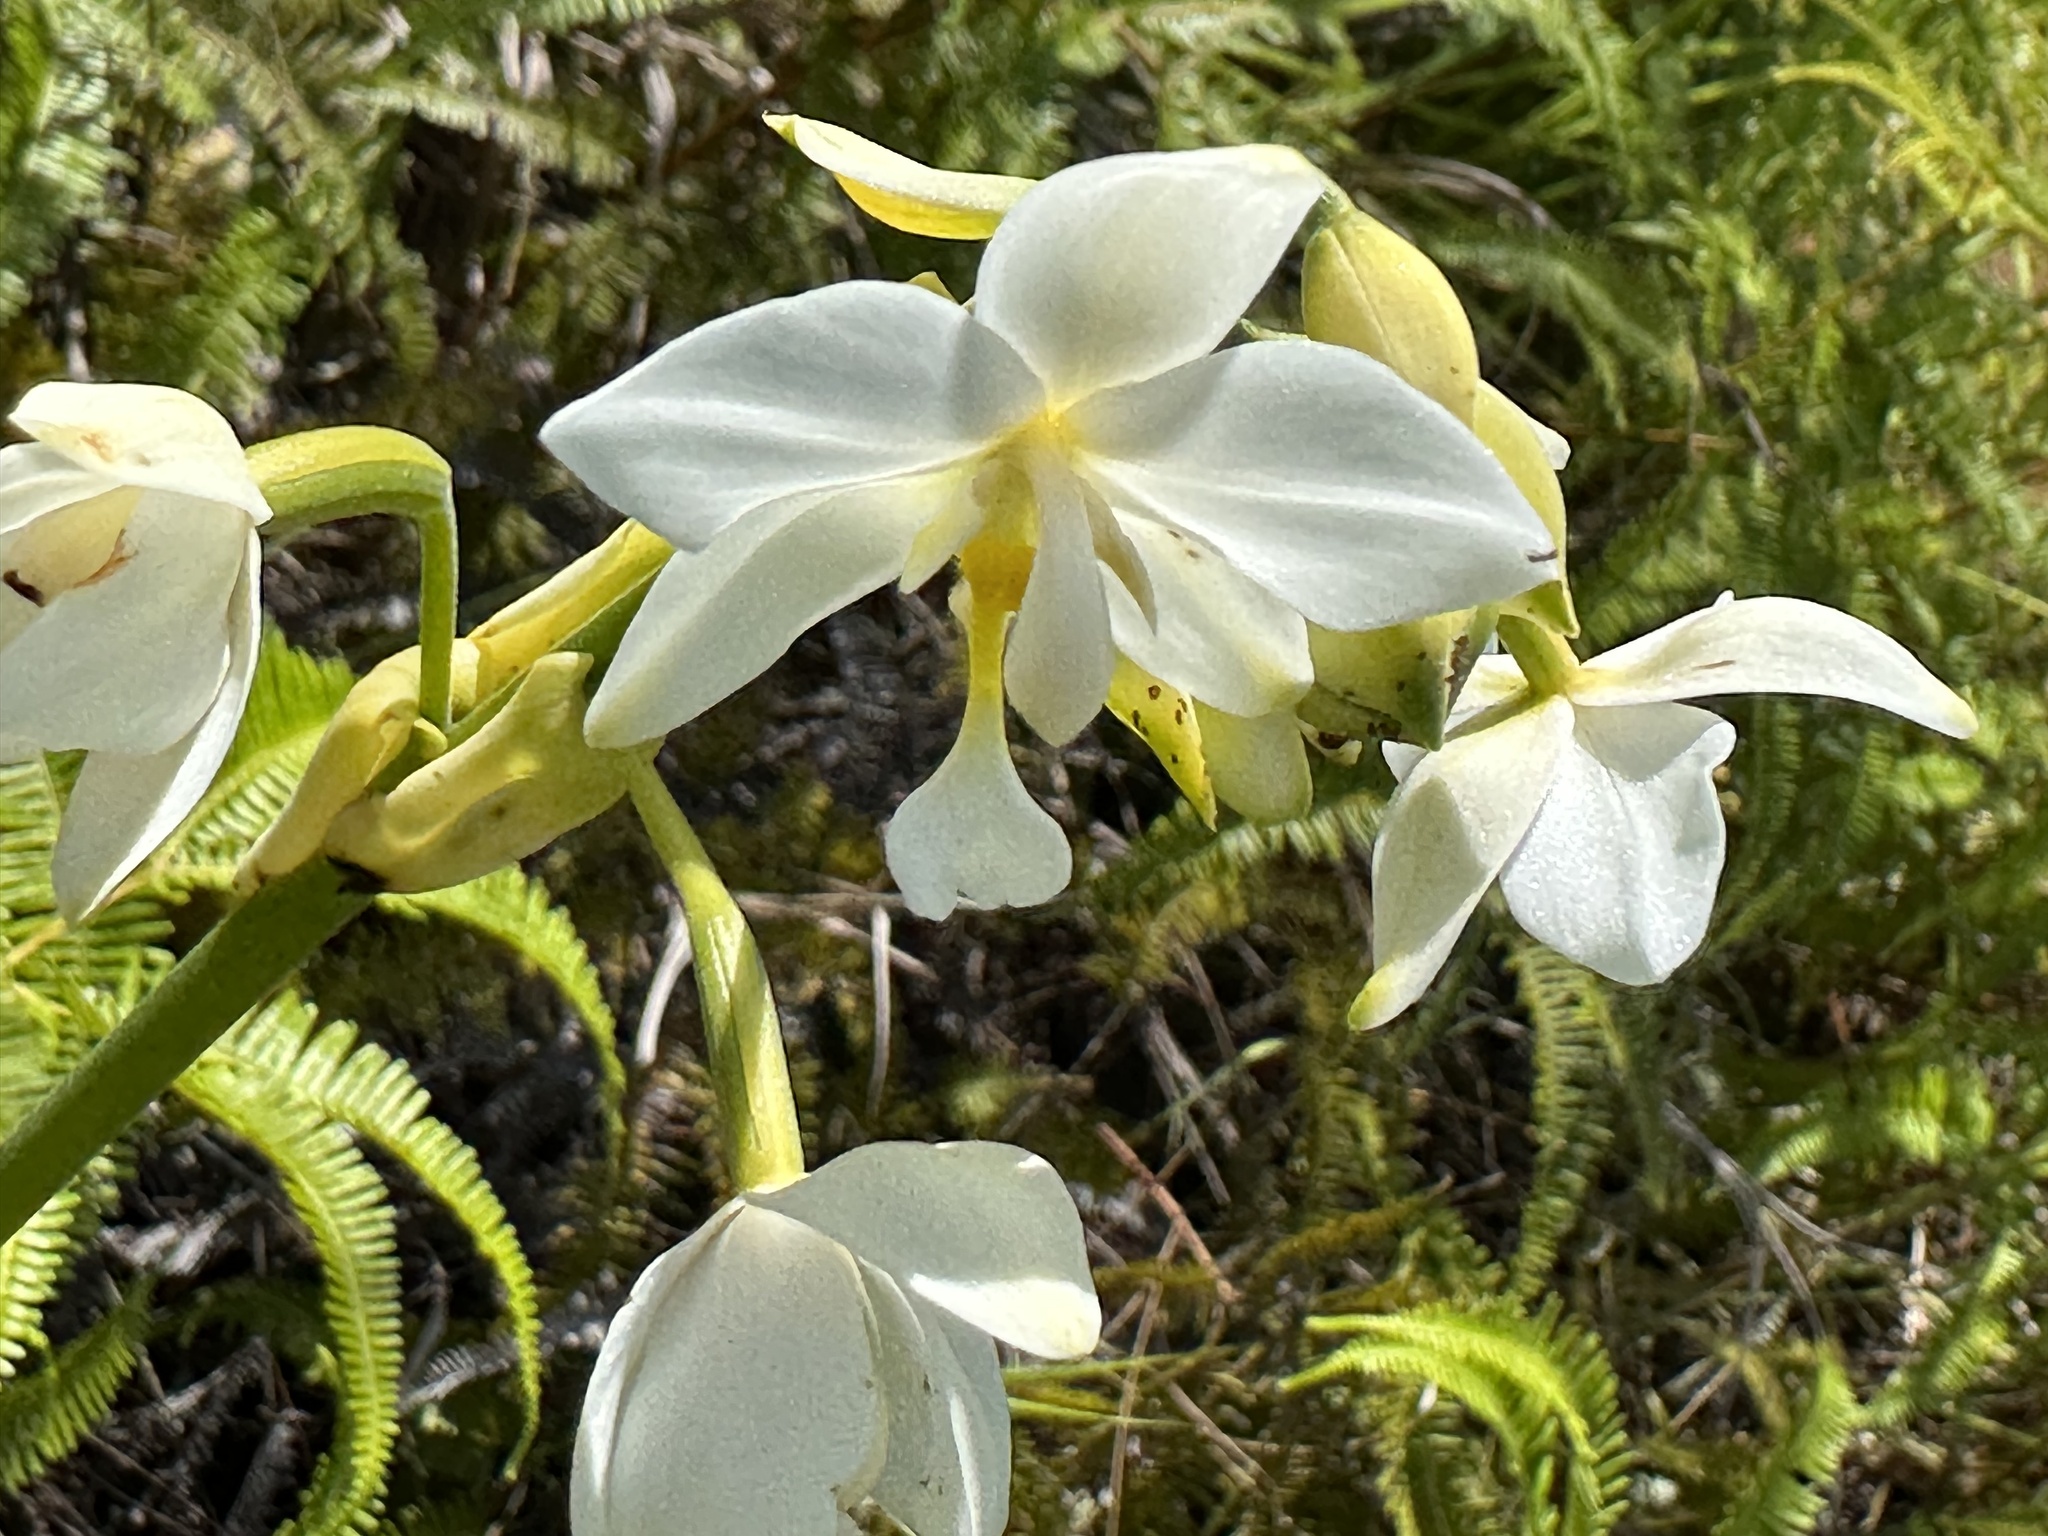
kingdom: Plantae
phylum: Tracheophyta
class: Liliopsida
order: Asparagales
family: Orchidaceae
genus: Spathoglottis
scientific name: Spathoglottis plicata
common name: Philippine ground orchid
